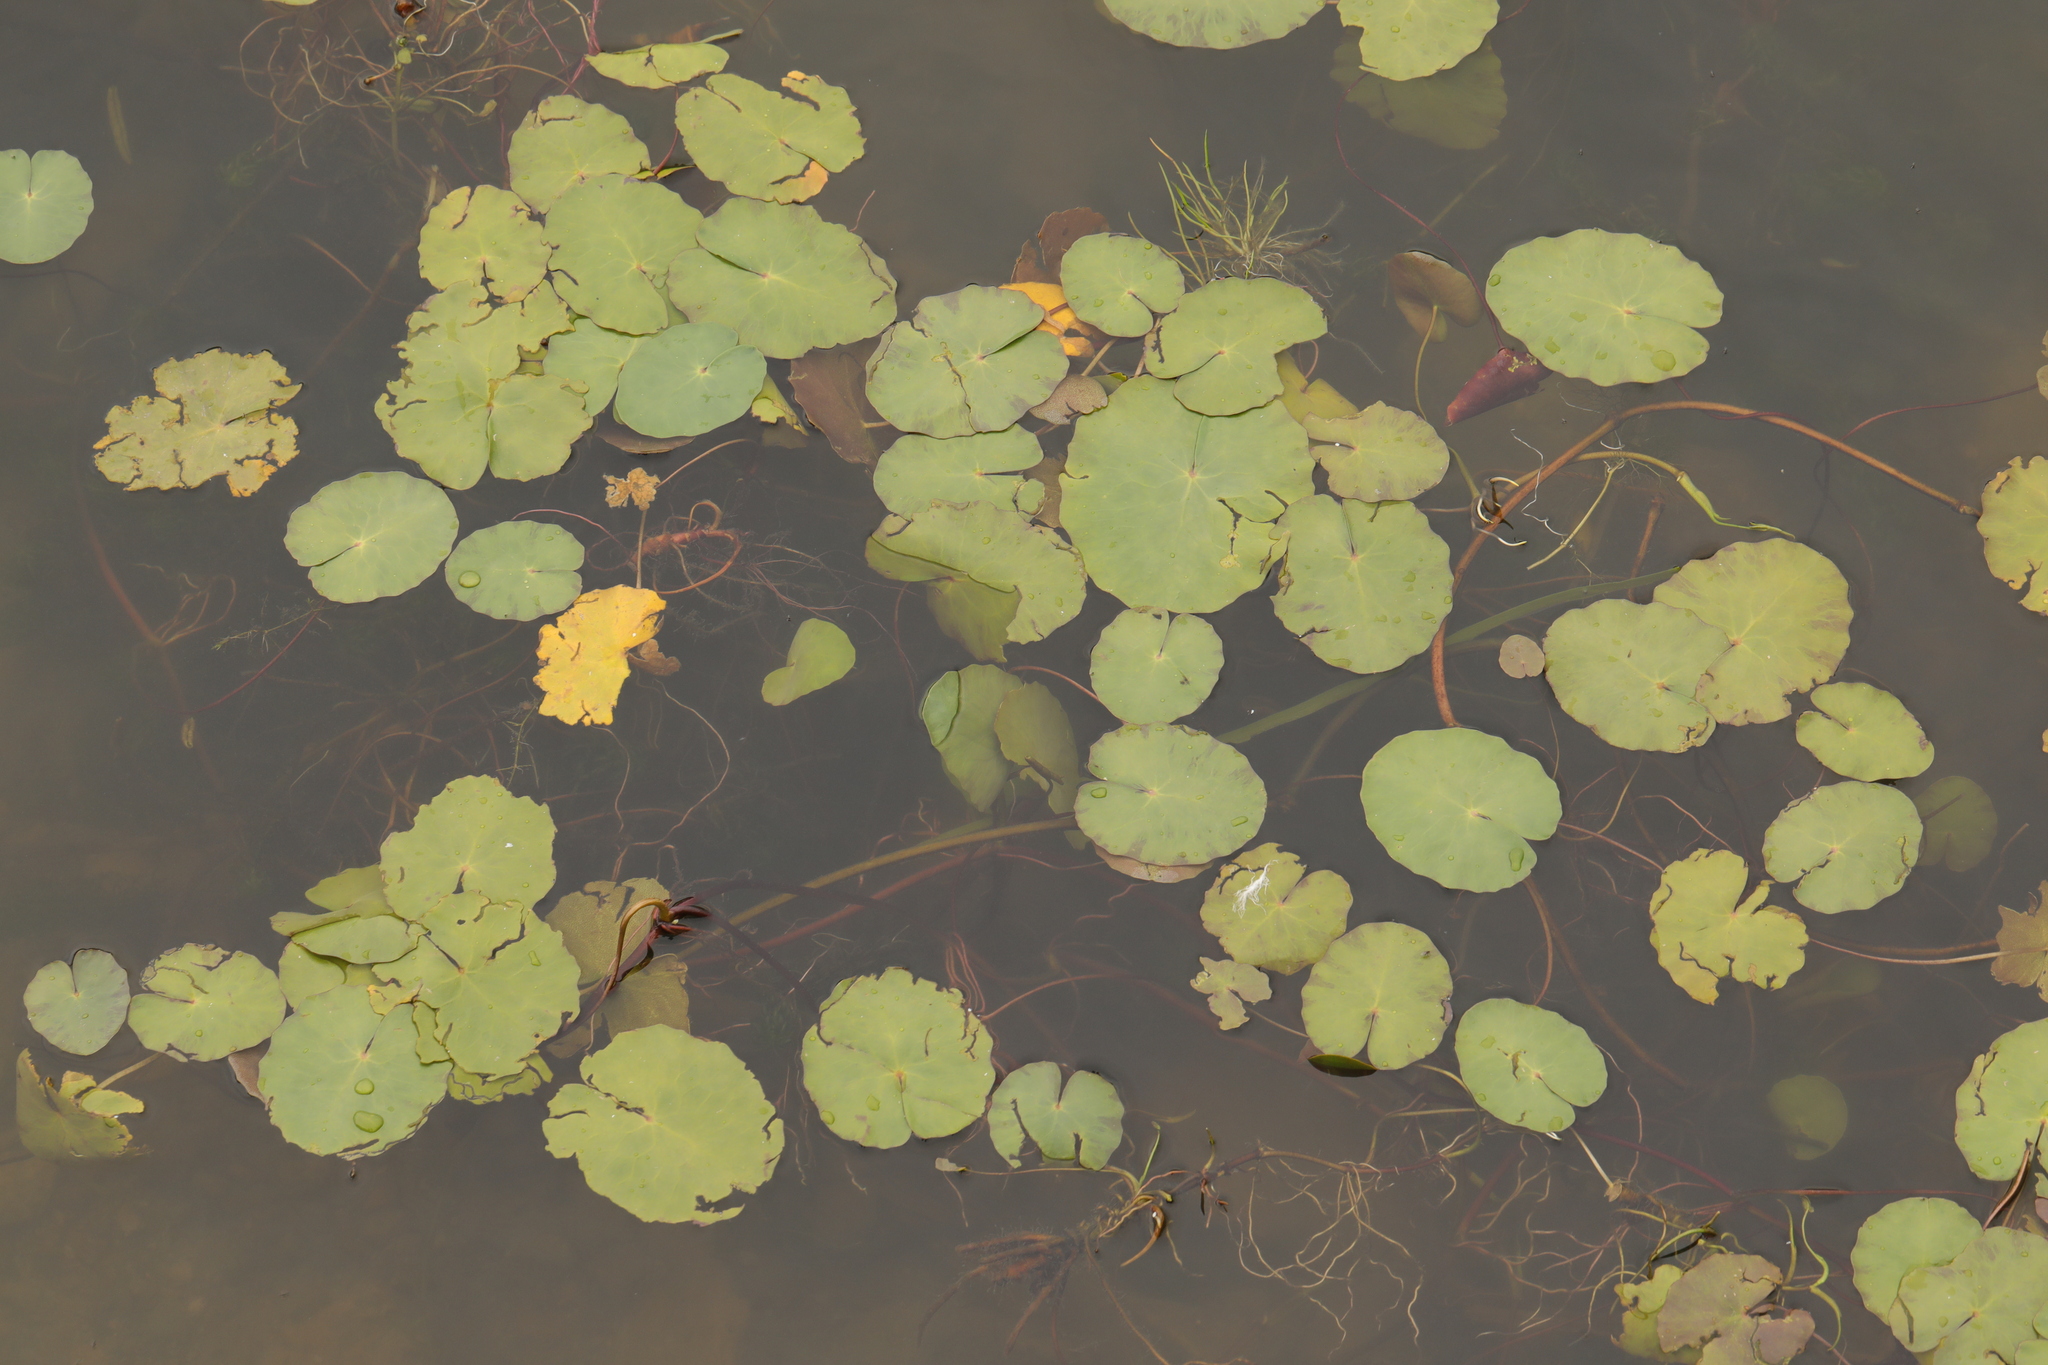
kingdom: Plantae
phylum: Tracheophyta
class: Magnoliopsida
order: Asterales
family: Menyanthaceae
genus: Nymphoides
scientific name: Nymphoides peltata
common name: Fringed water-lily
